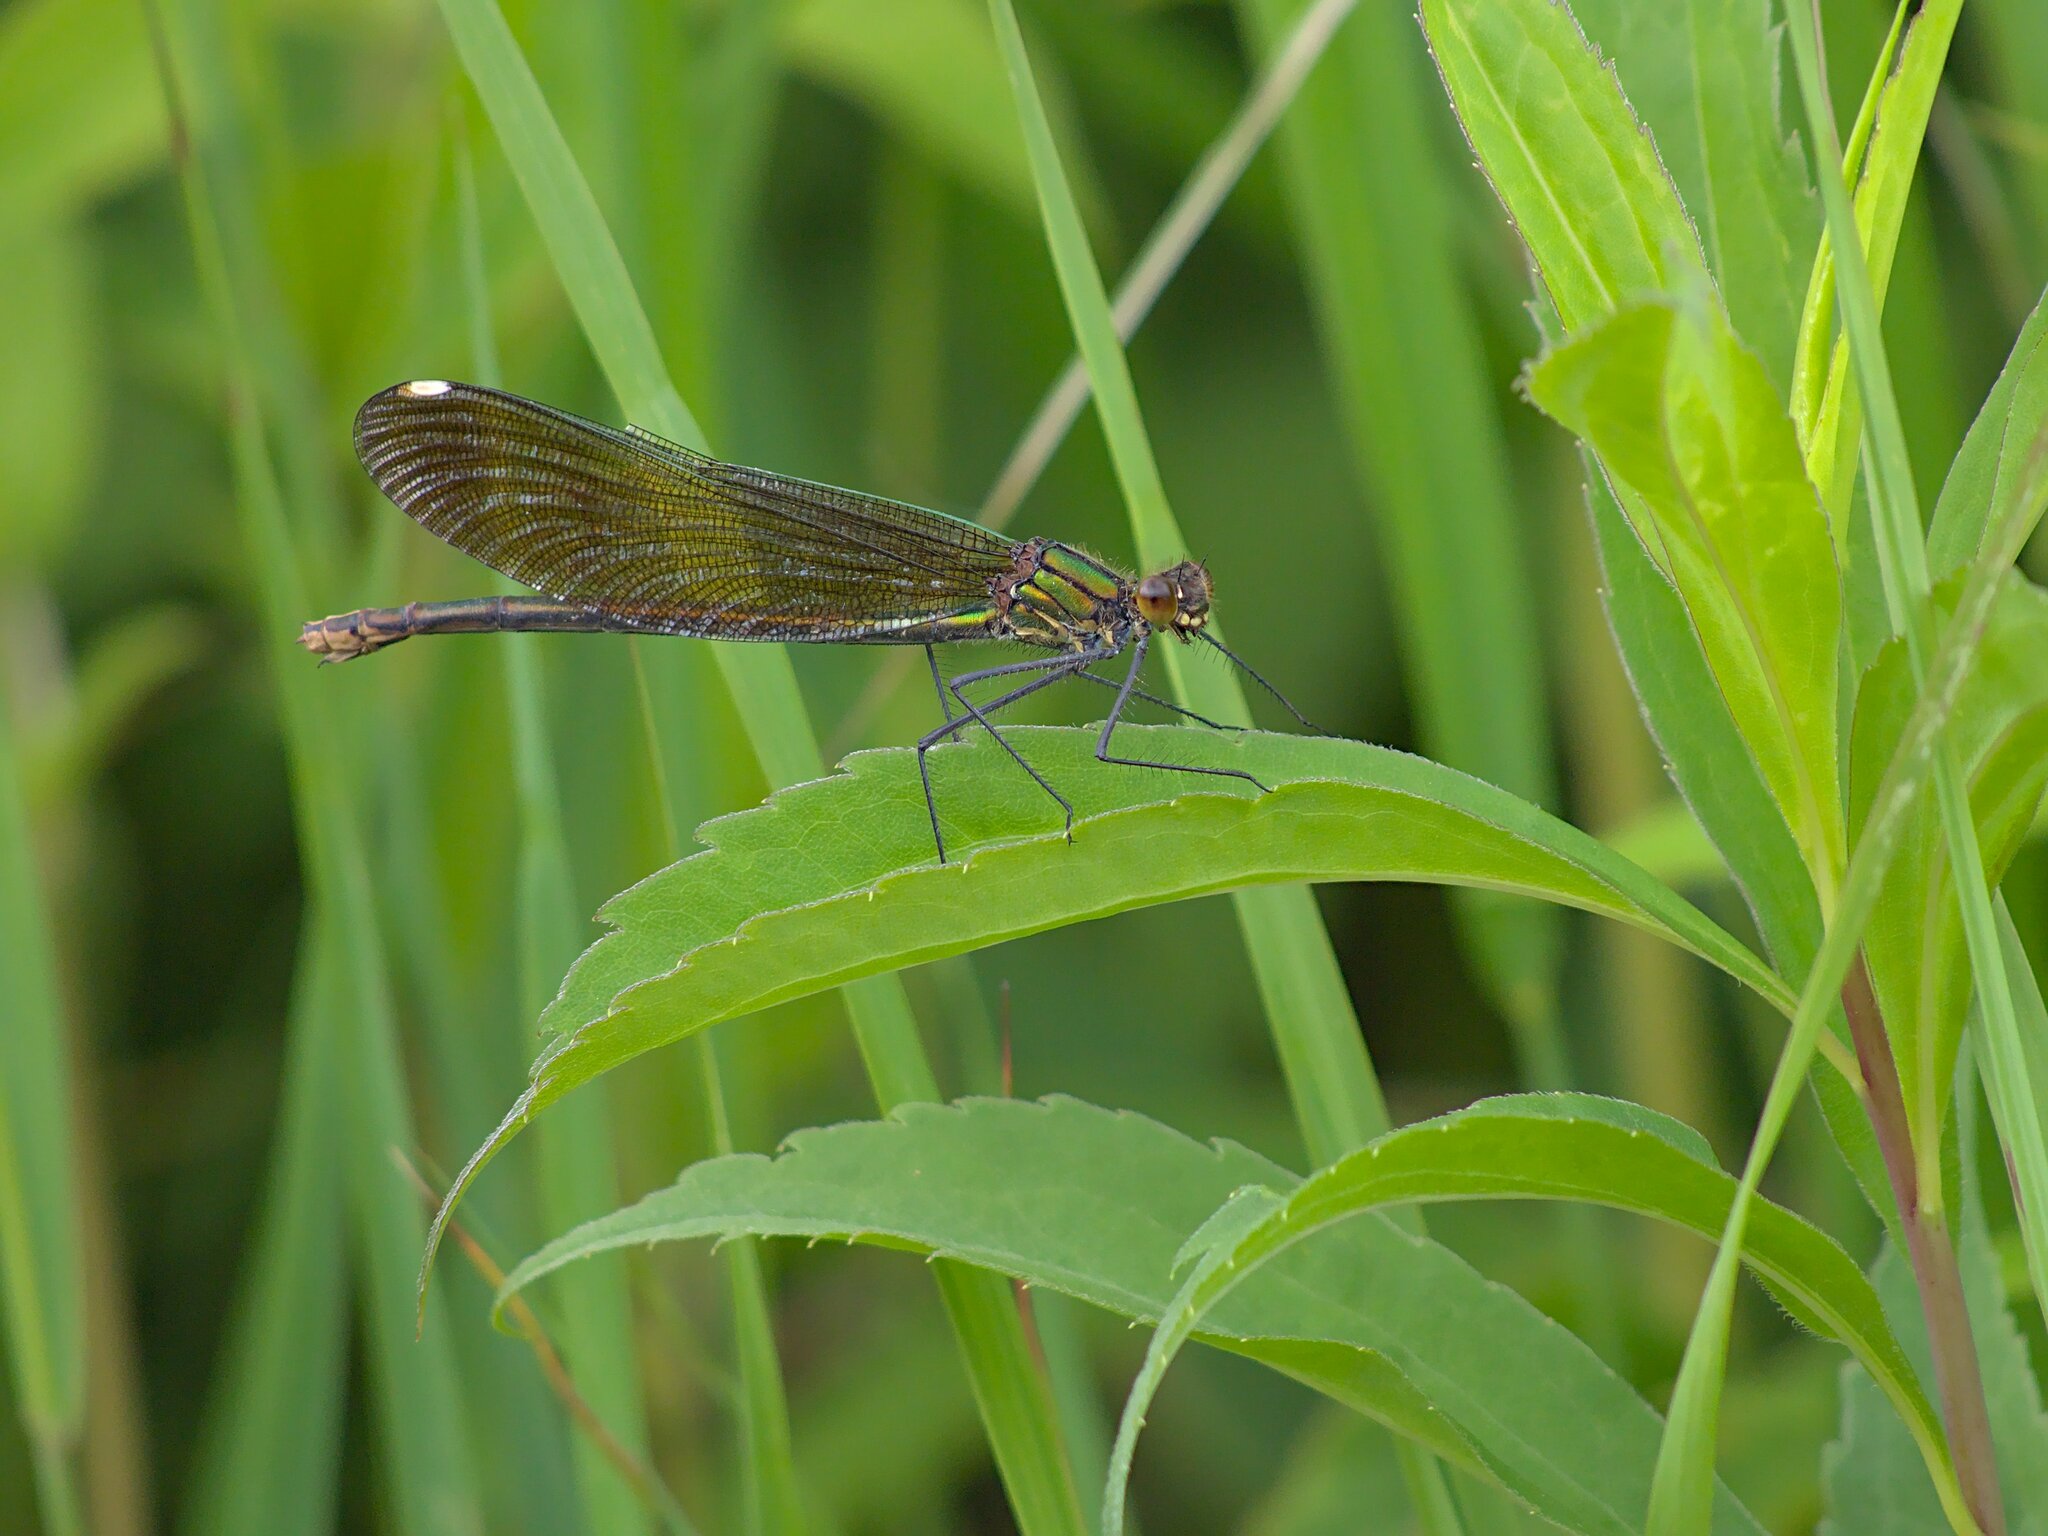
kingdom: Animalia
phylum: Arthropoda
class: Insecta
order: Odonata
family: Calopterygidae
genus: Calopteryx
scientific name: Calopteryx aequabilis
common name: River jewelwing
